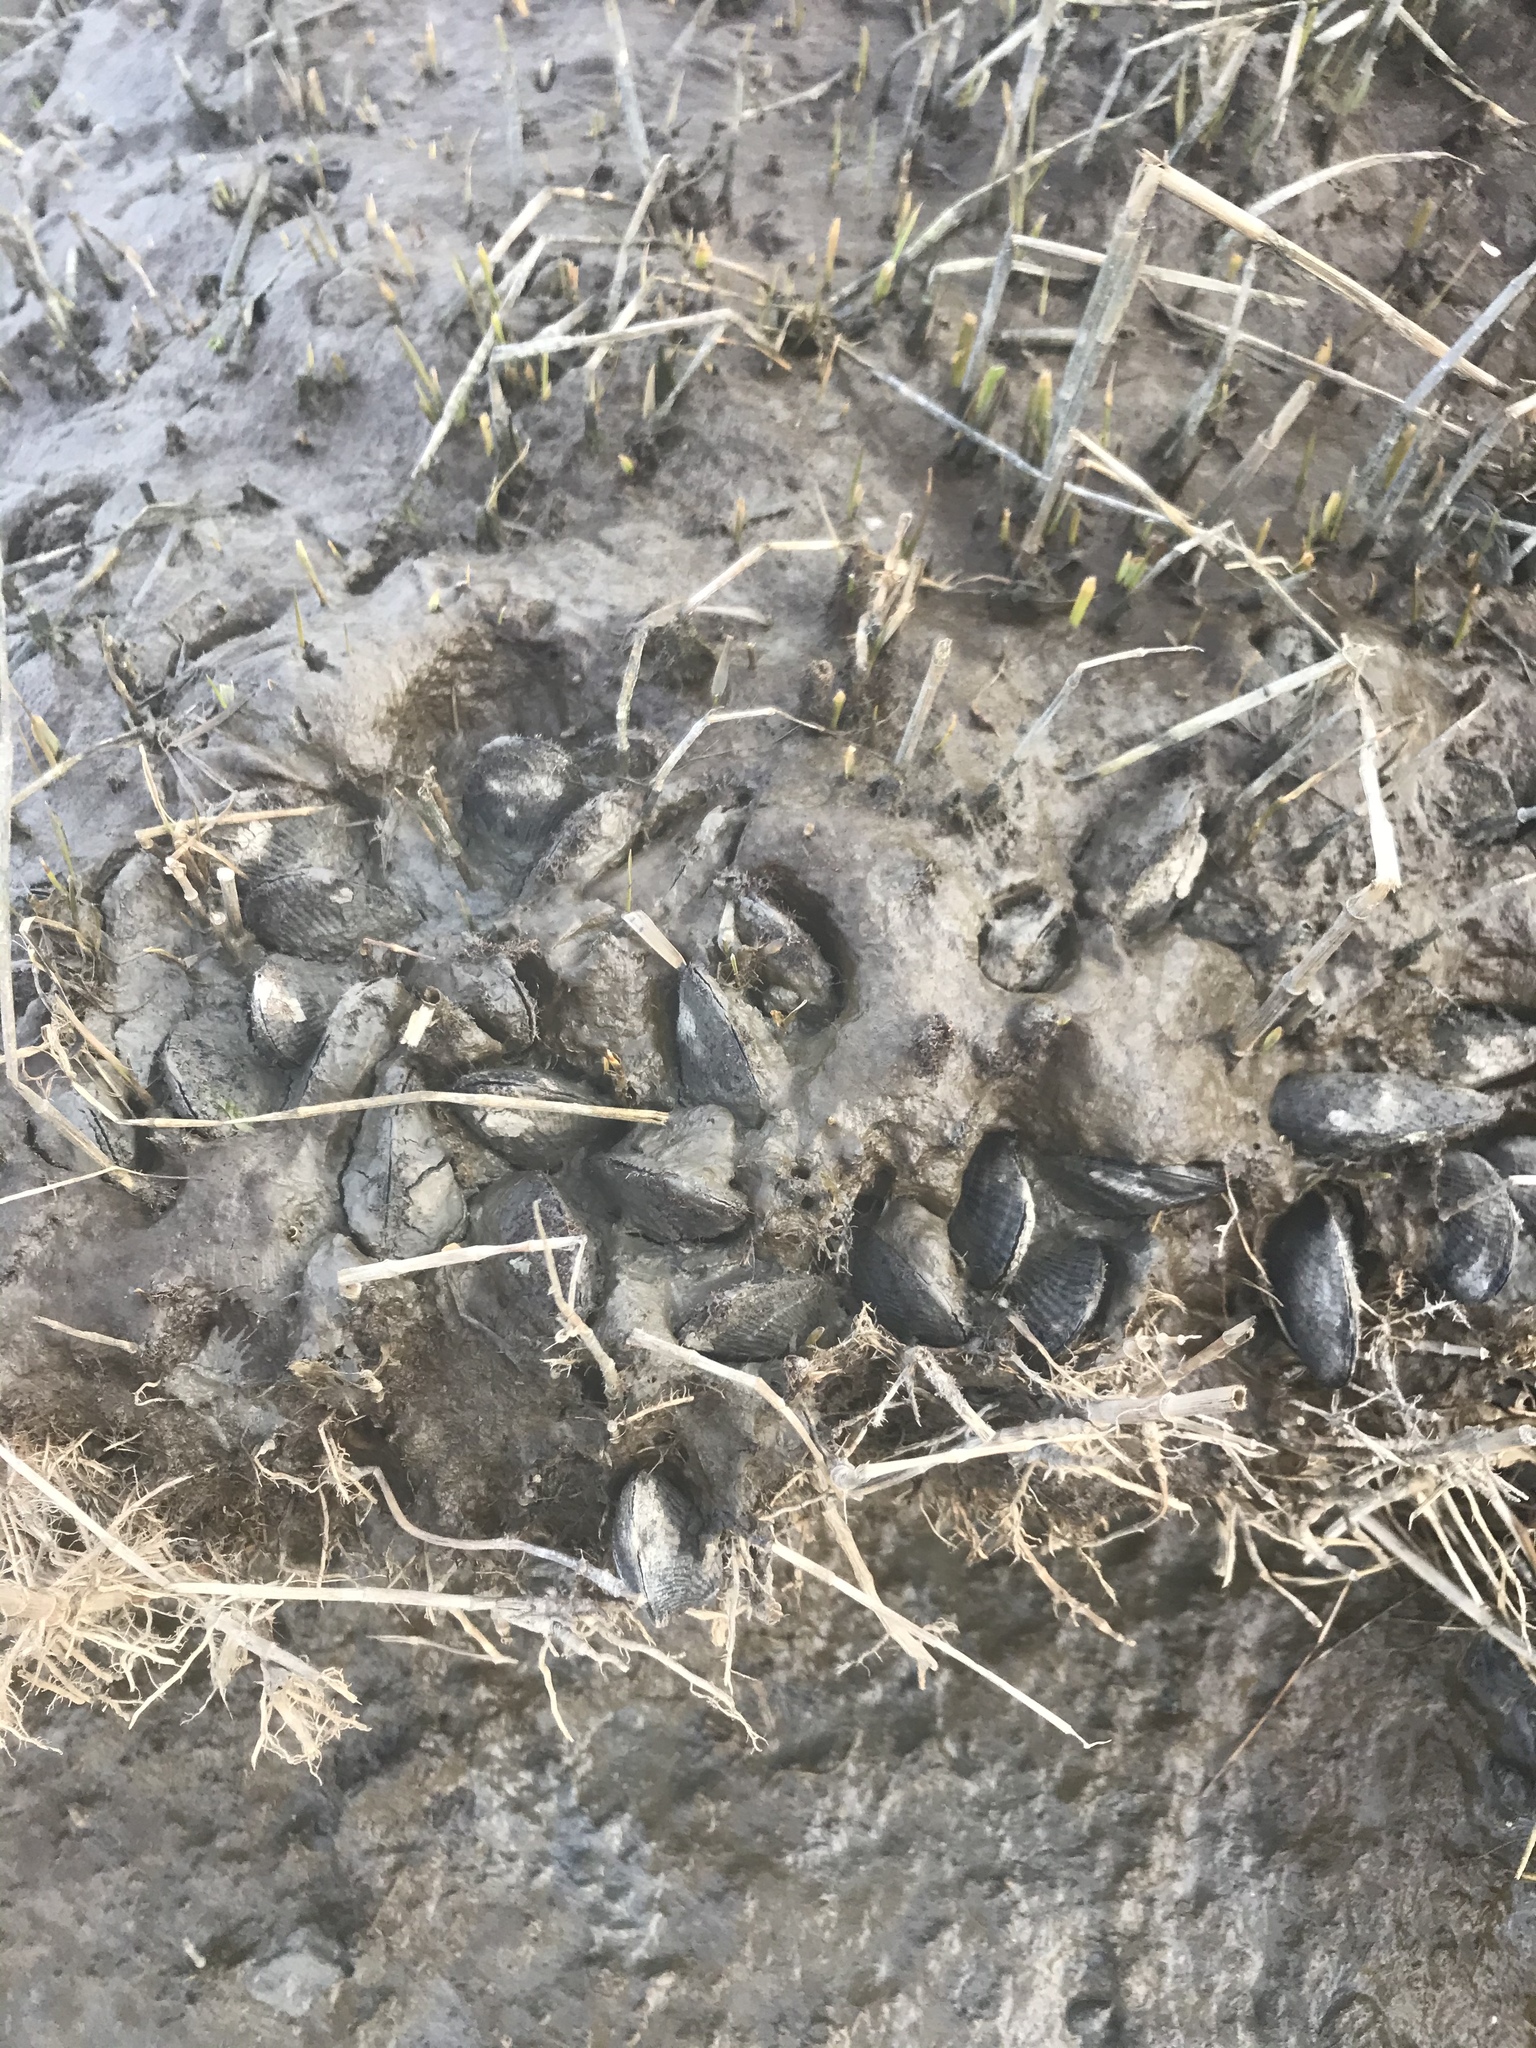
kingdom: Animalia
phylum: Mollusca
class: Bivalvia
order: Mytilida
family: Mytilidae
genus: Geukensia
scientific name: Geukensia demissa
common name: Ribbed mussel
